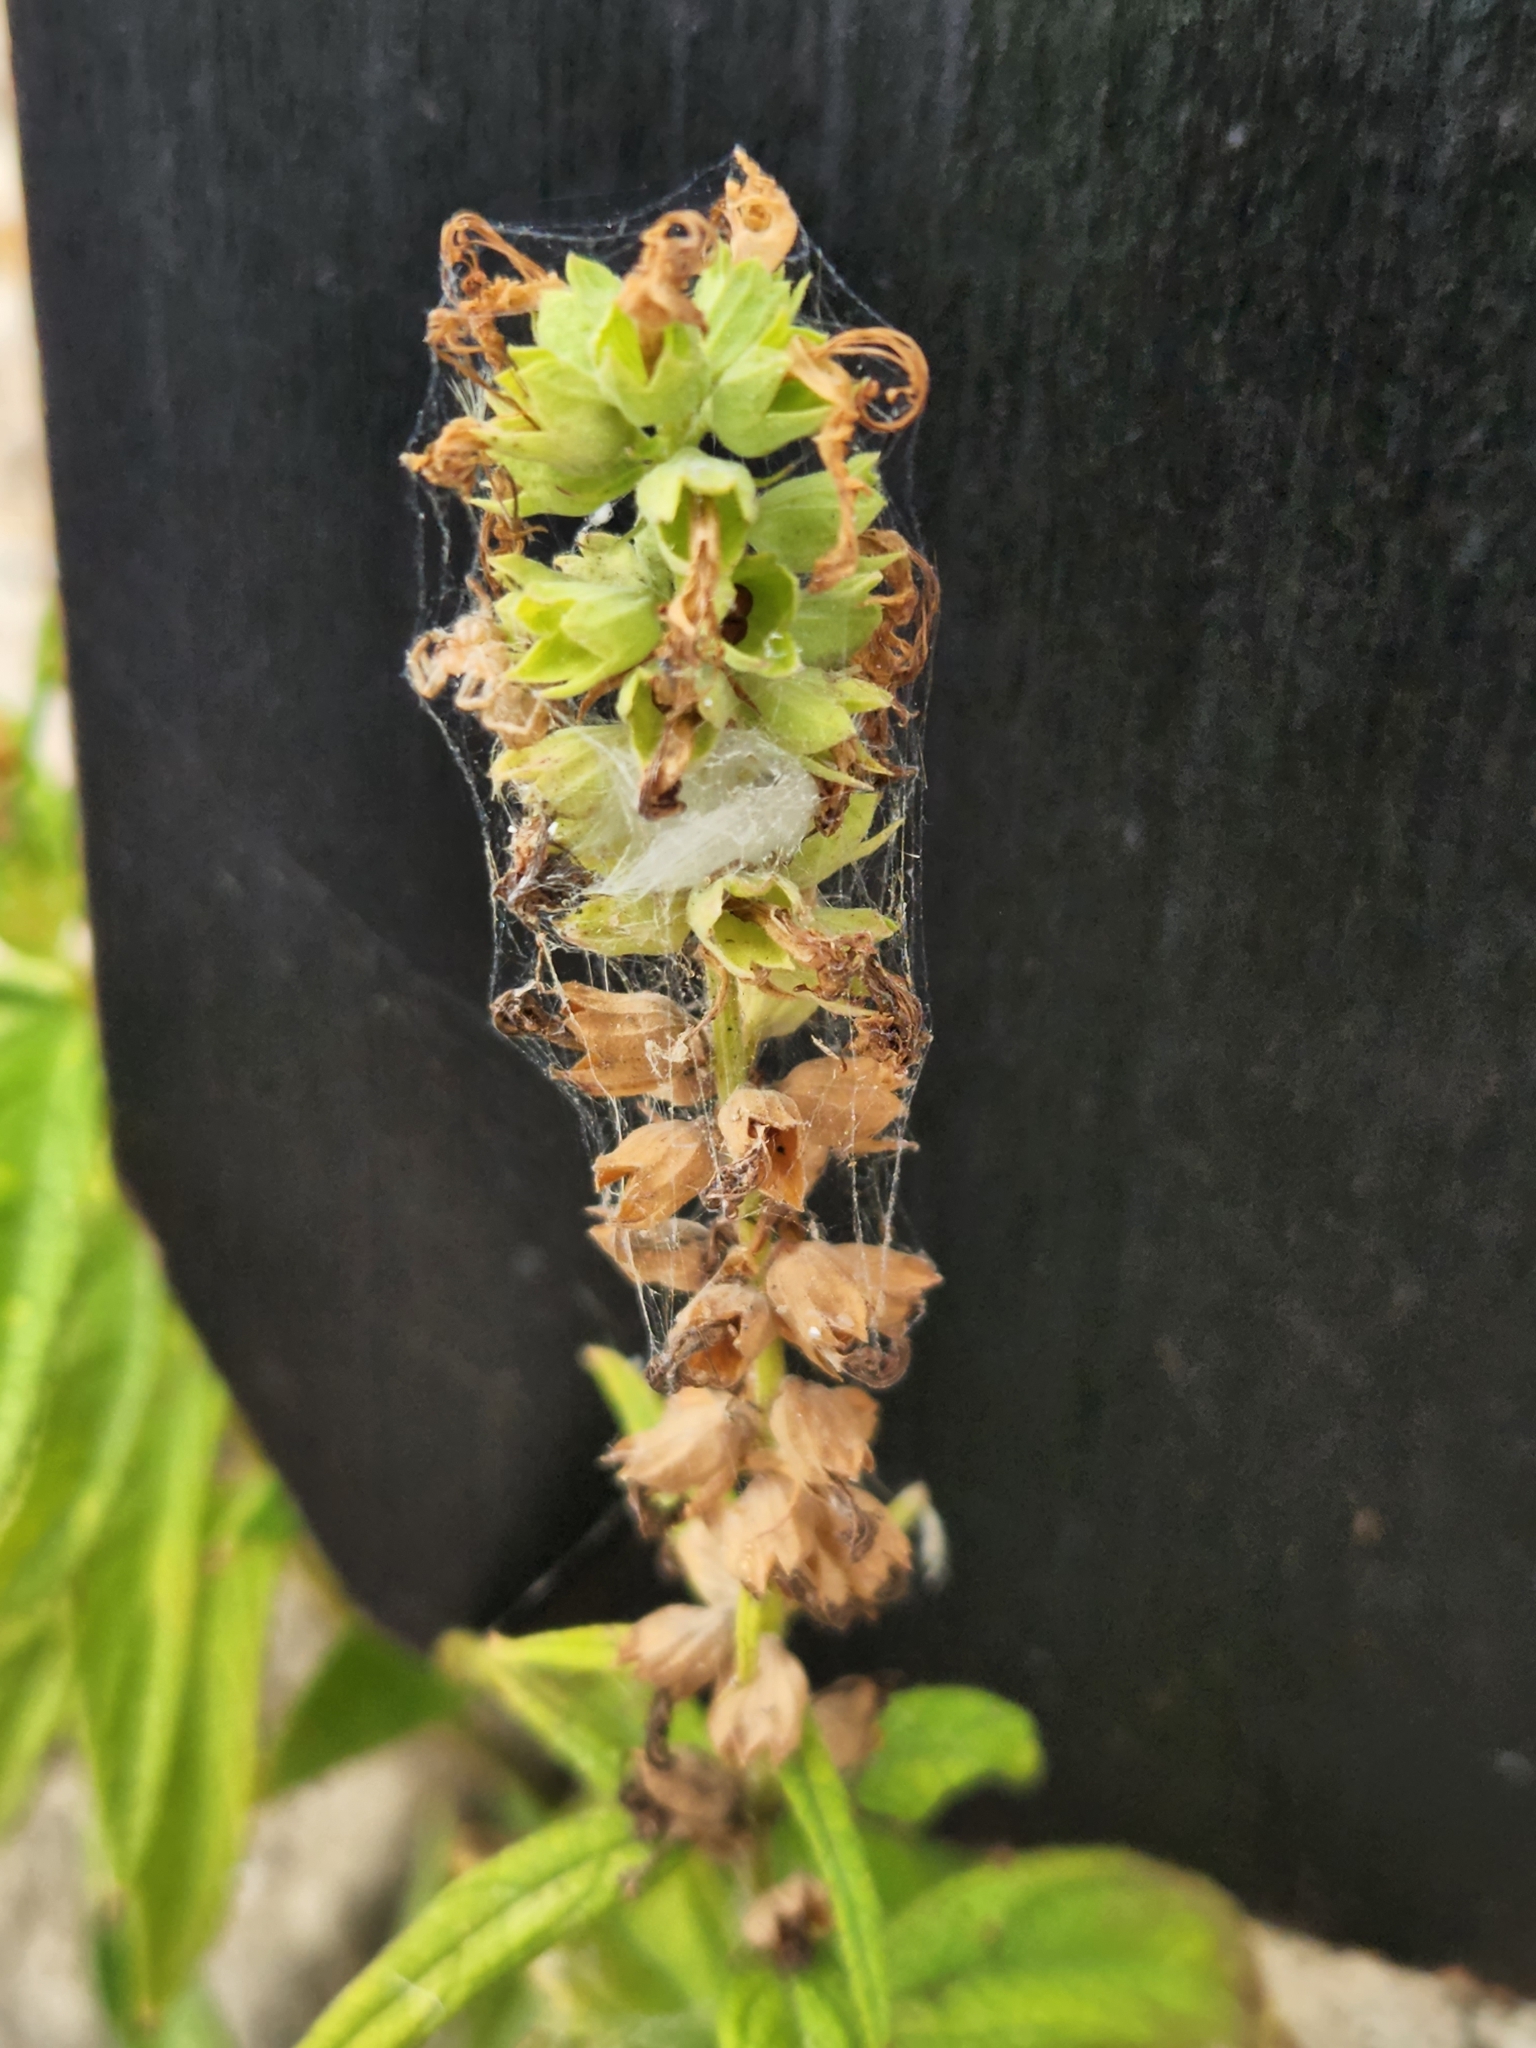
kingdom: Plantae
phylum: Tracheophyta
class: Magnoliopsida
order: Lamiales
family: Lamiaceae
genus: Teucrium
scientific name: Teucrium canadense
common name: American germander
